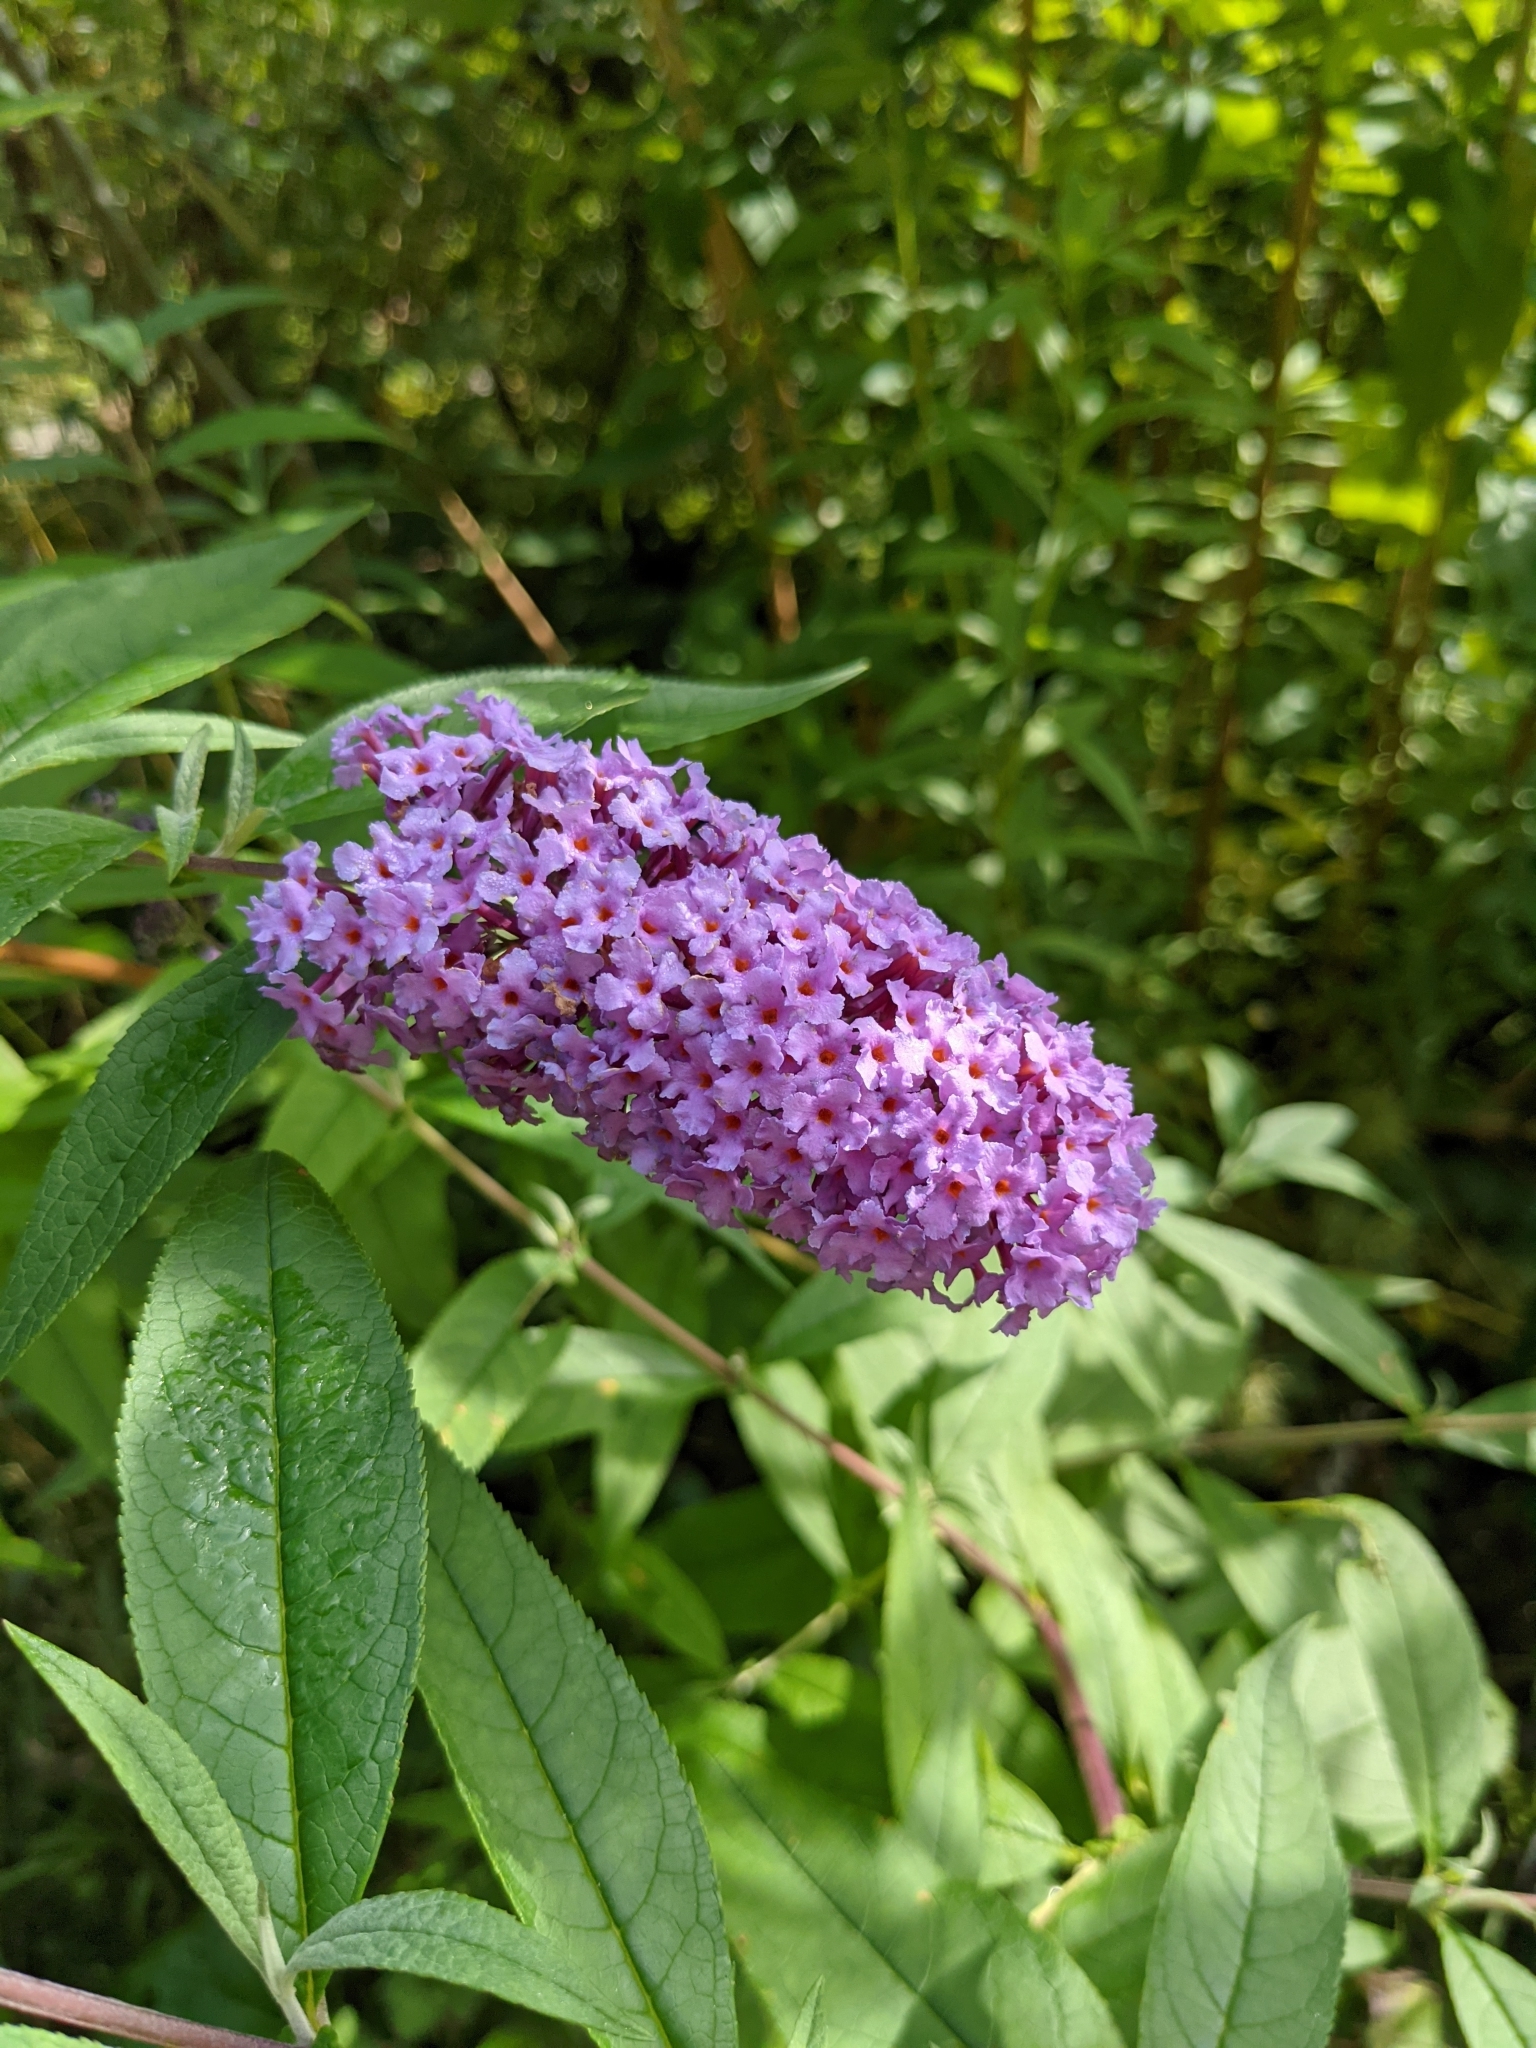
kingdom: Plantae
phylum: Tracheophyta
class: Magnoliopsida
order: Lamiales
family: Scrophulariaceae
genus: Buddleja
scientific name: Buddleja davidii
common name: Butterfly-bush
